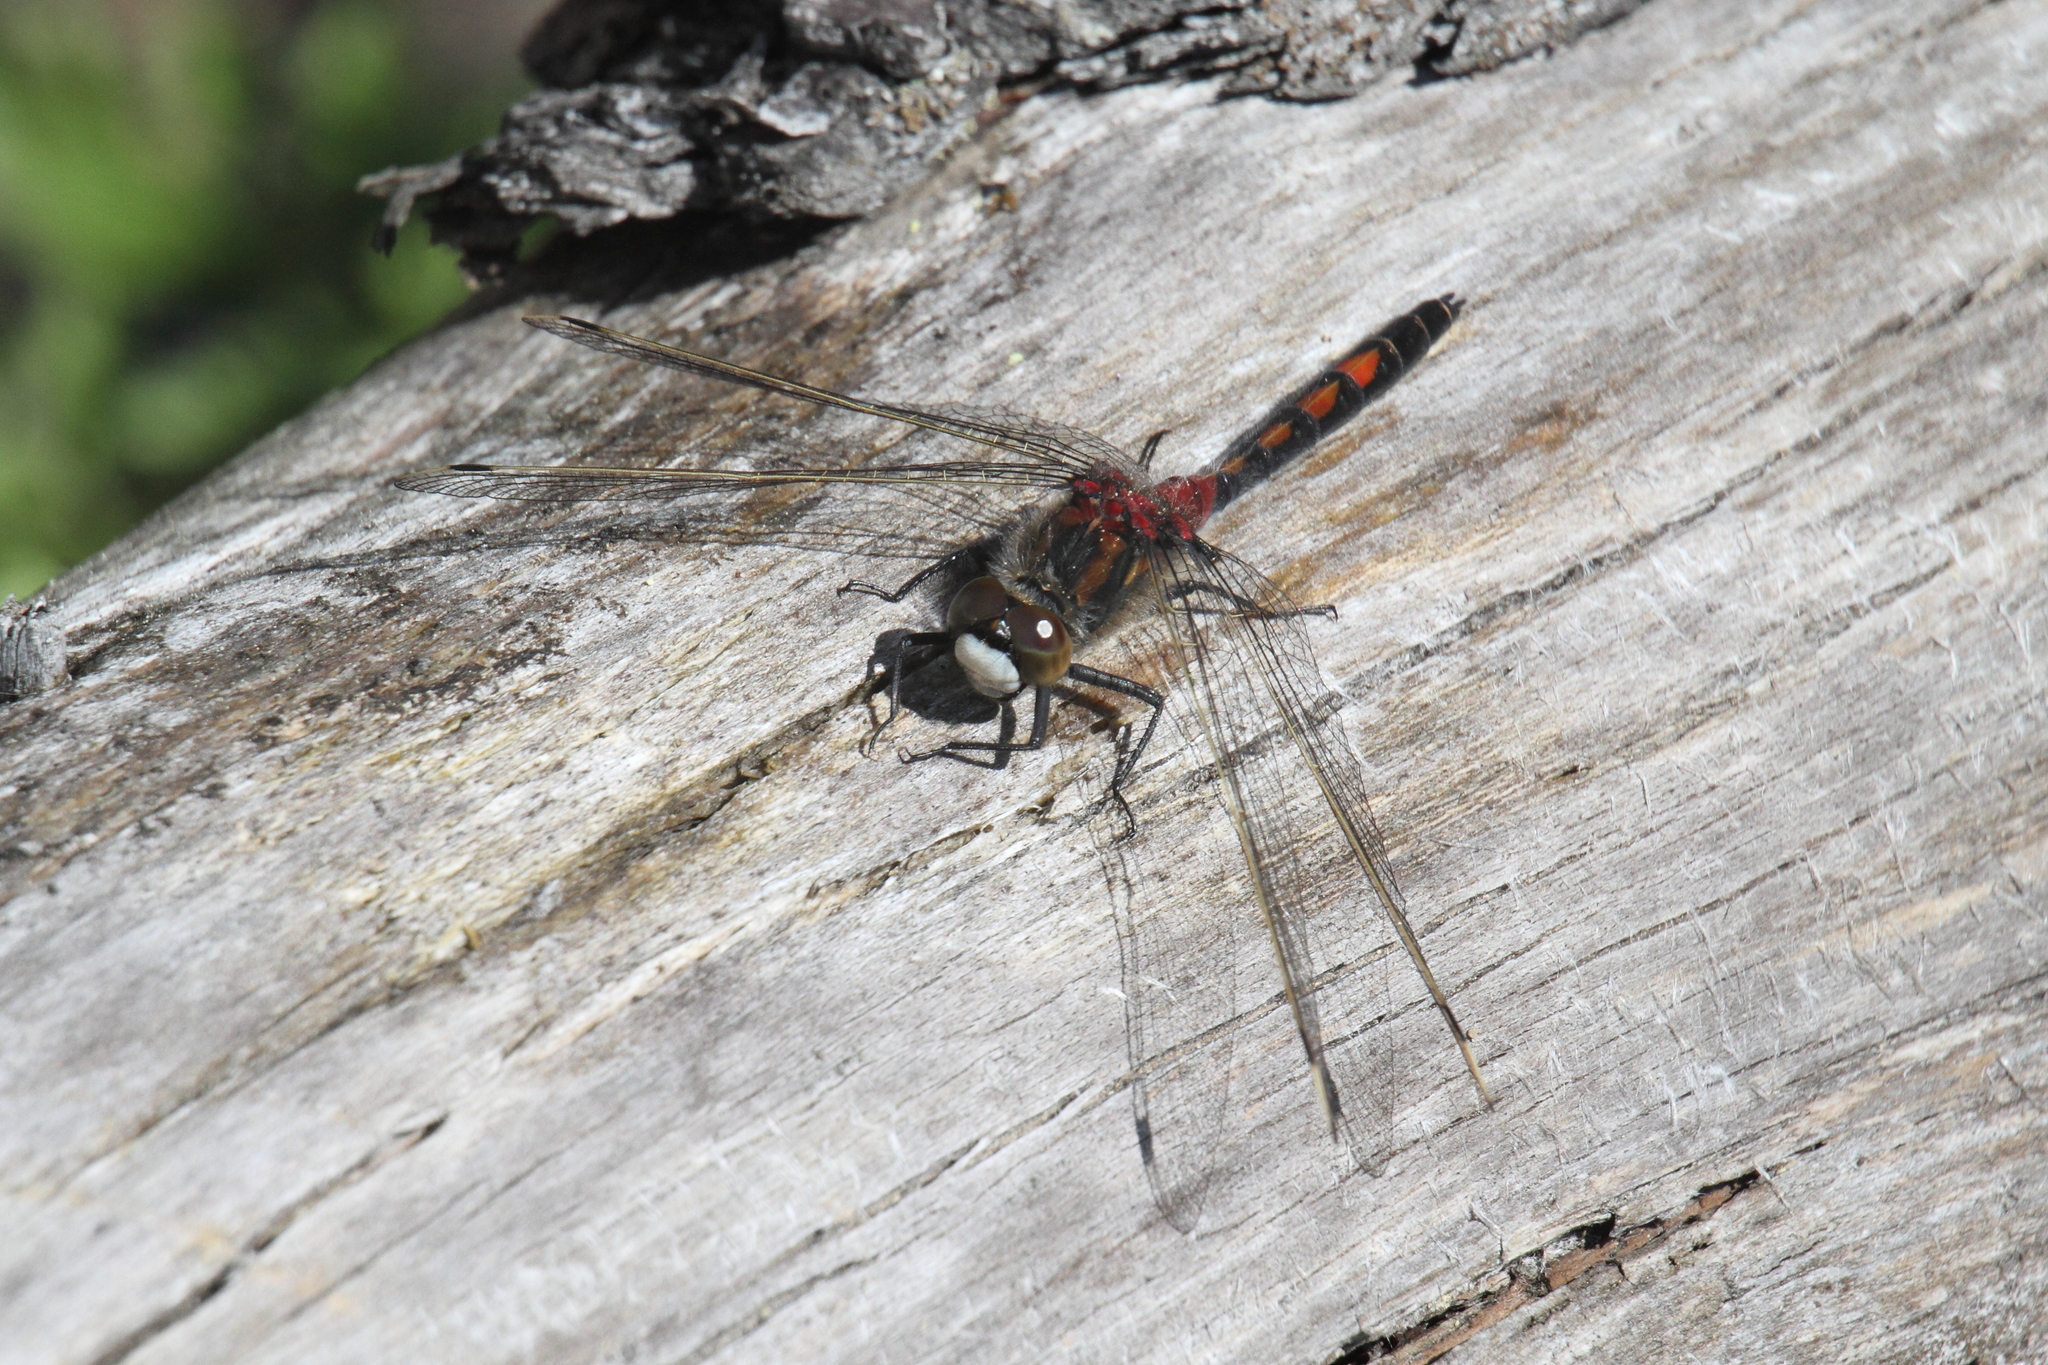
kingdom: Animalia
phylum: Arthropoda
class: Insecta
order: Odonata
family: Libellulidae
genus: Leucorrhinia
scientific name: Leucorrhinia rubicunda
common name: Ruby whiteface
